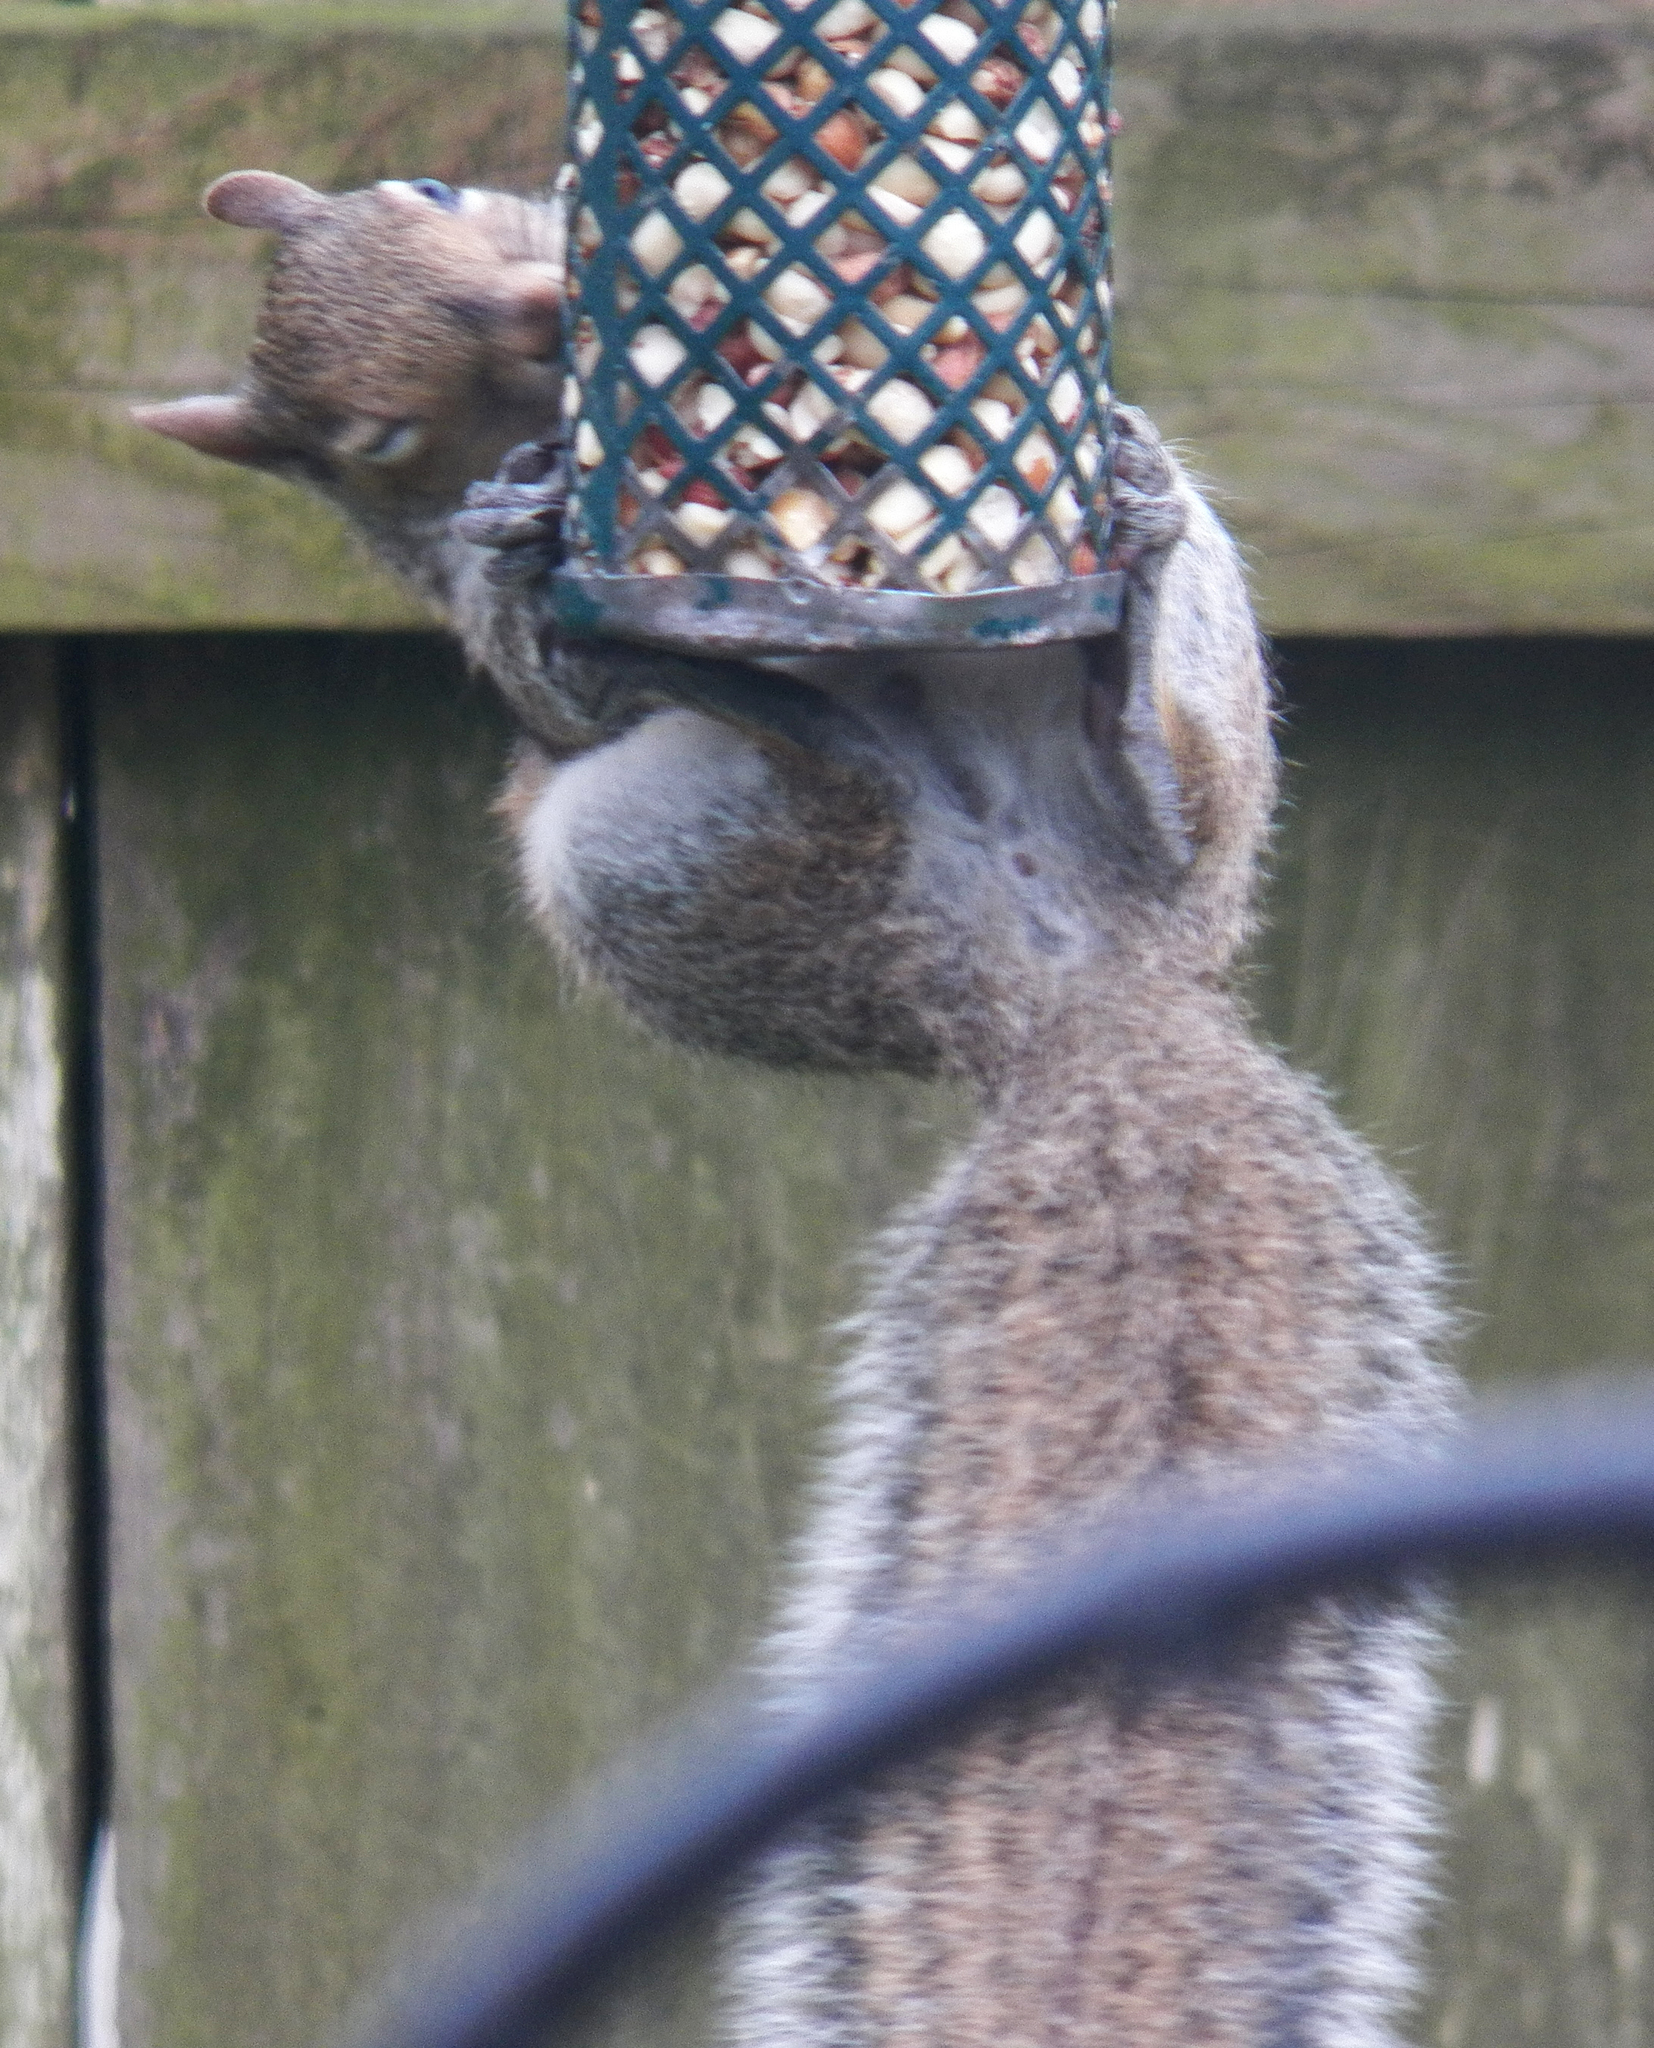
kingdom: Animalia
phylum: Chordata
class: Mammalia
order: Rodentia
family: Sciuridae
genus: Sciurus
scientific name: Sciurus carolinensis
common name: Eastern gray squirrel
